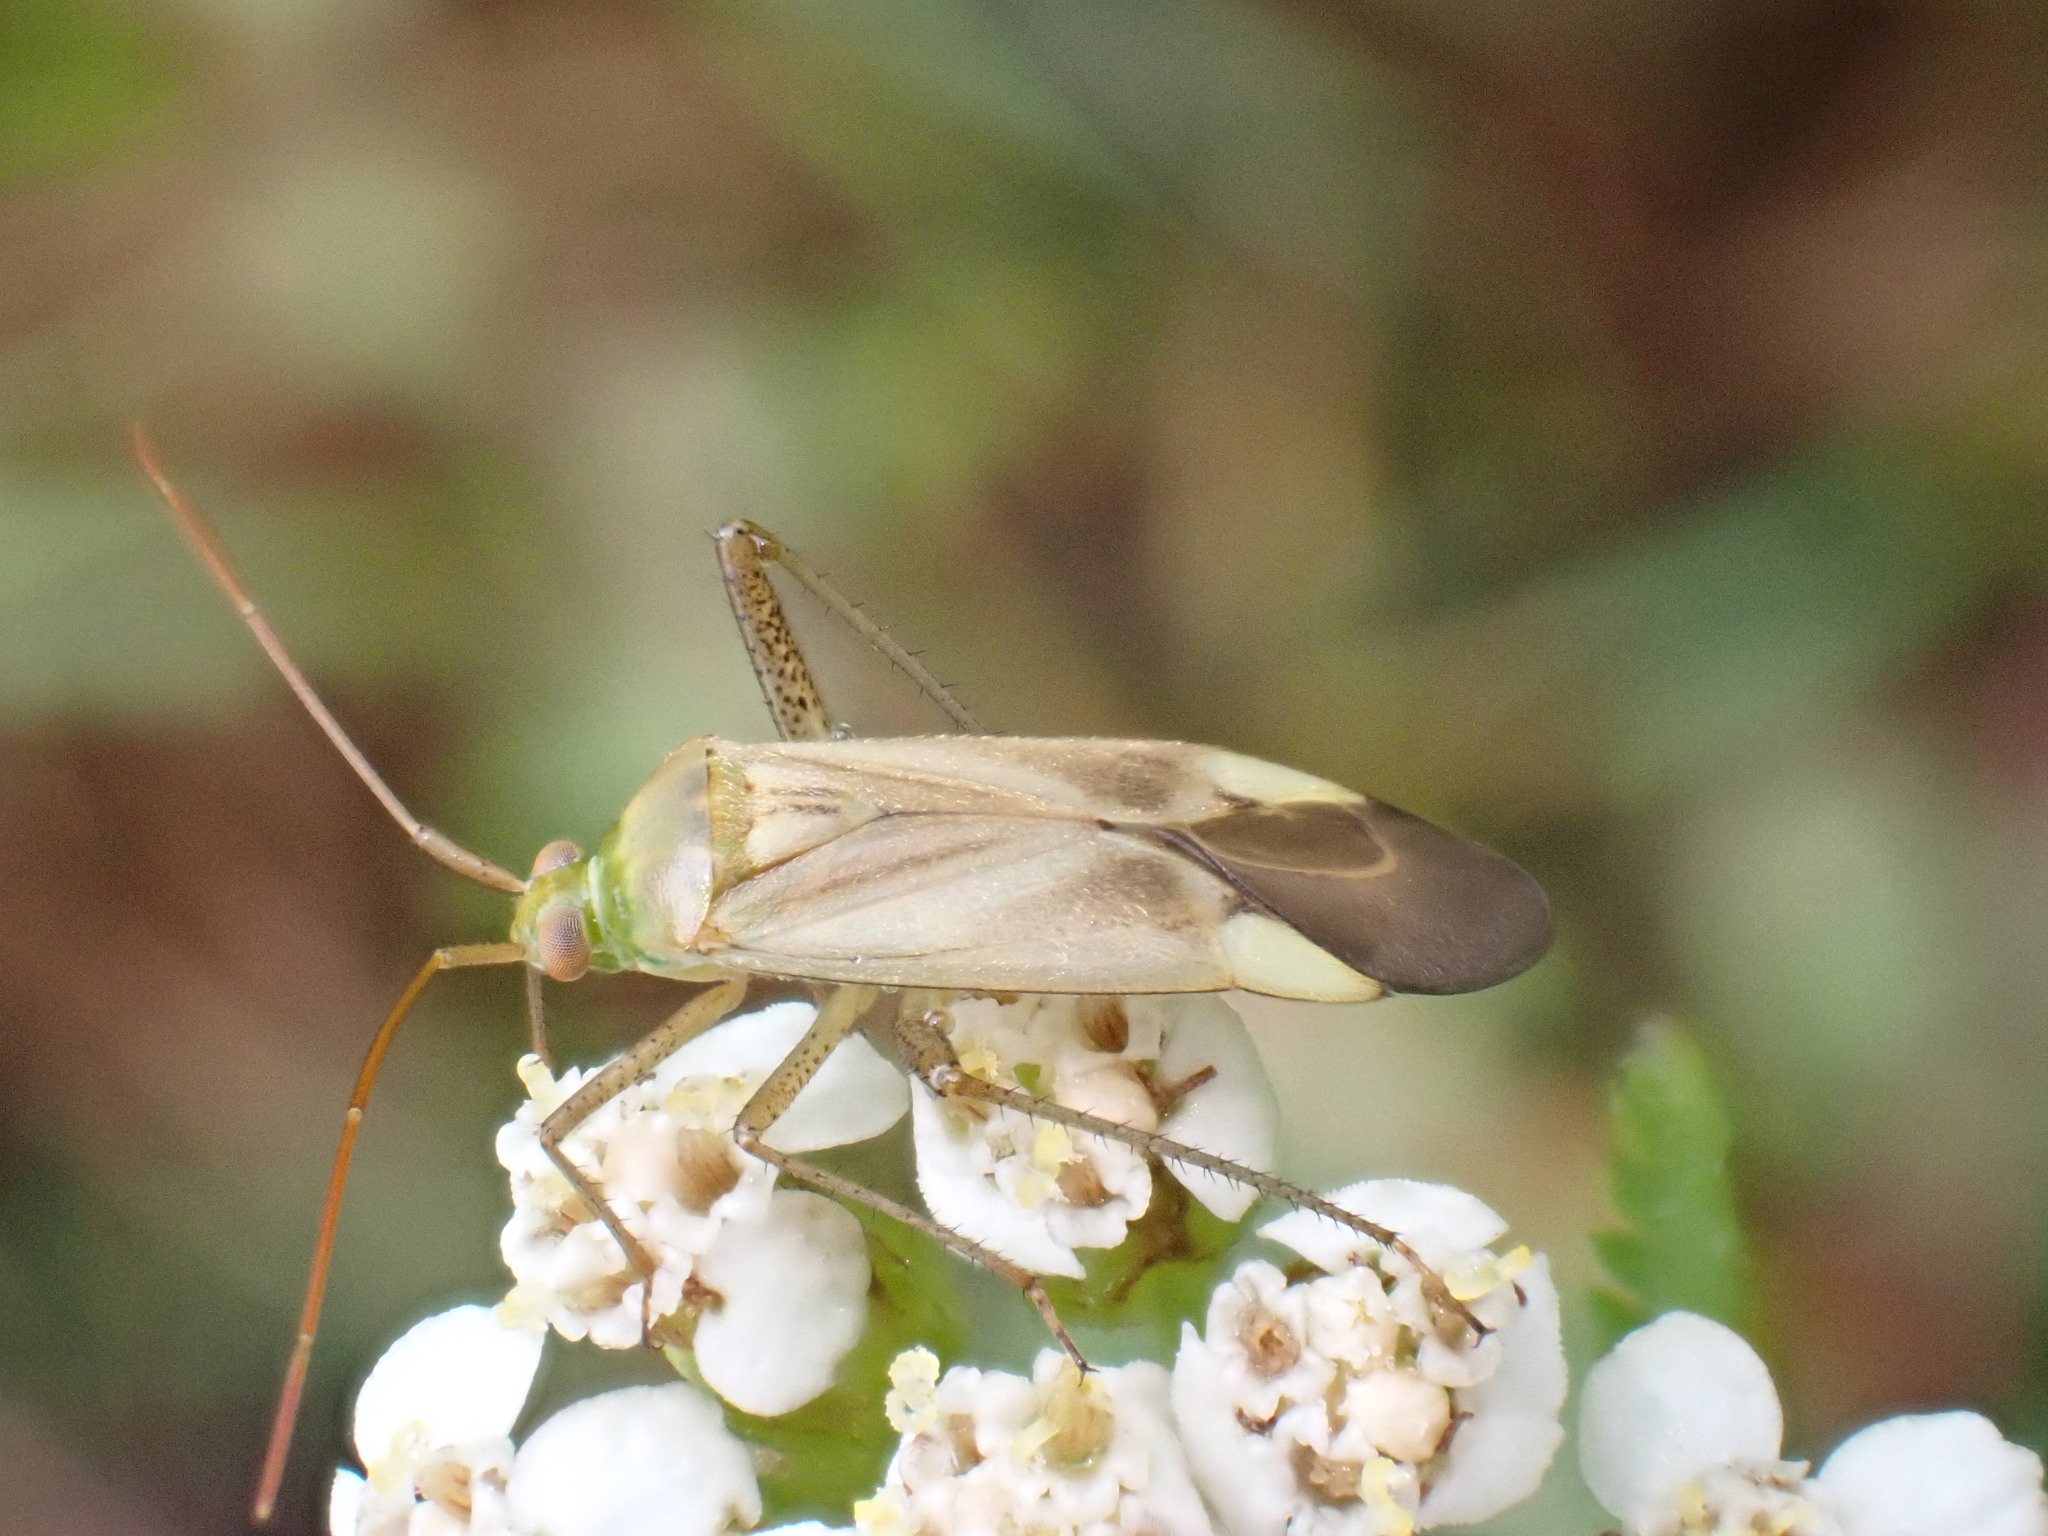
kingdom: Animalia
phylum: Arthropoda
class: Insecta
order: Hemiptera
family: Miridae
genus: Adelphocoris
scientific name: Adelphocoris lineolatus
